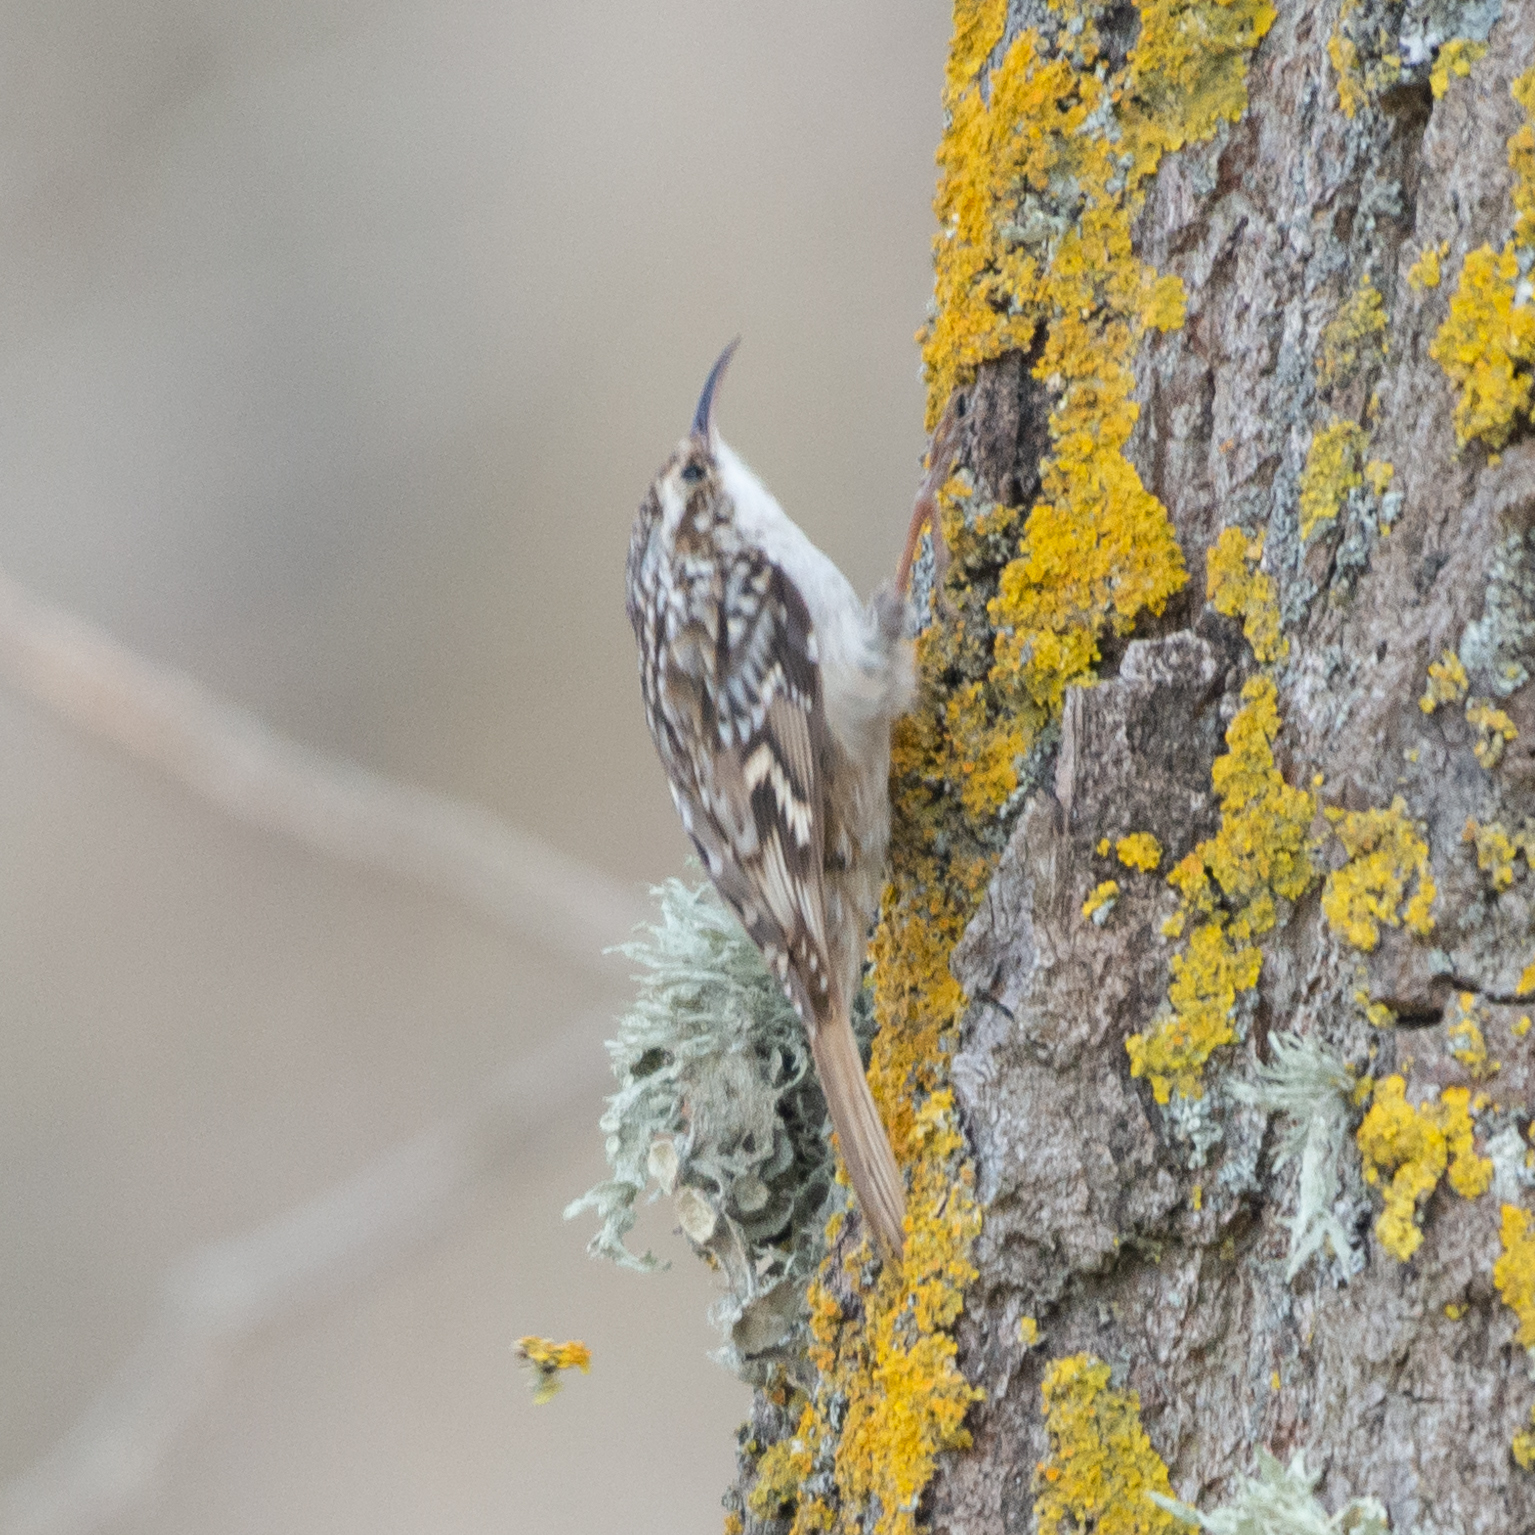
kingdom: Animalia
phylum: Chordata
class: Aves
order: Passeriformes
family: Certhiidae
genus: Certhia
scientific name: Certhia brachydactyla
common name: Short-toed treecreeper
